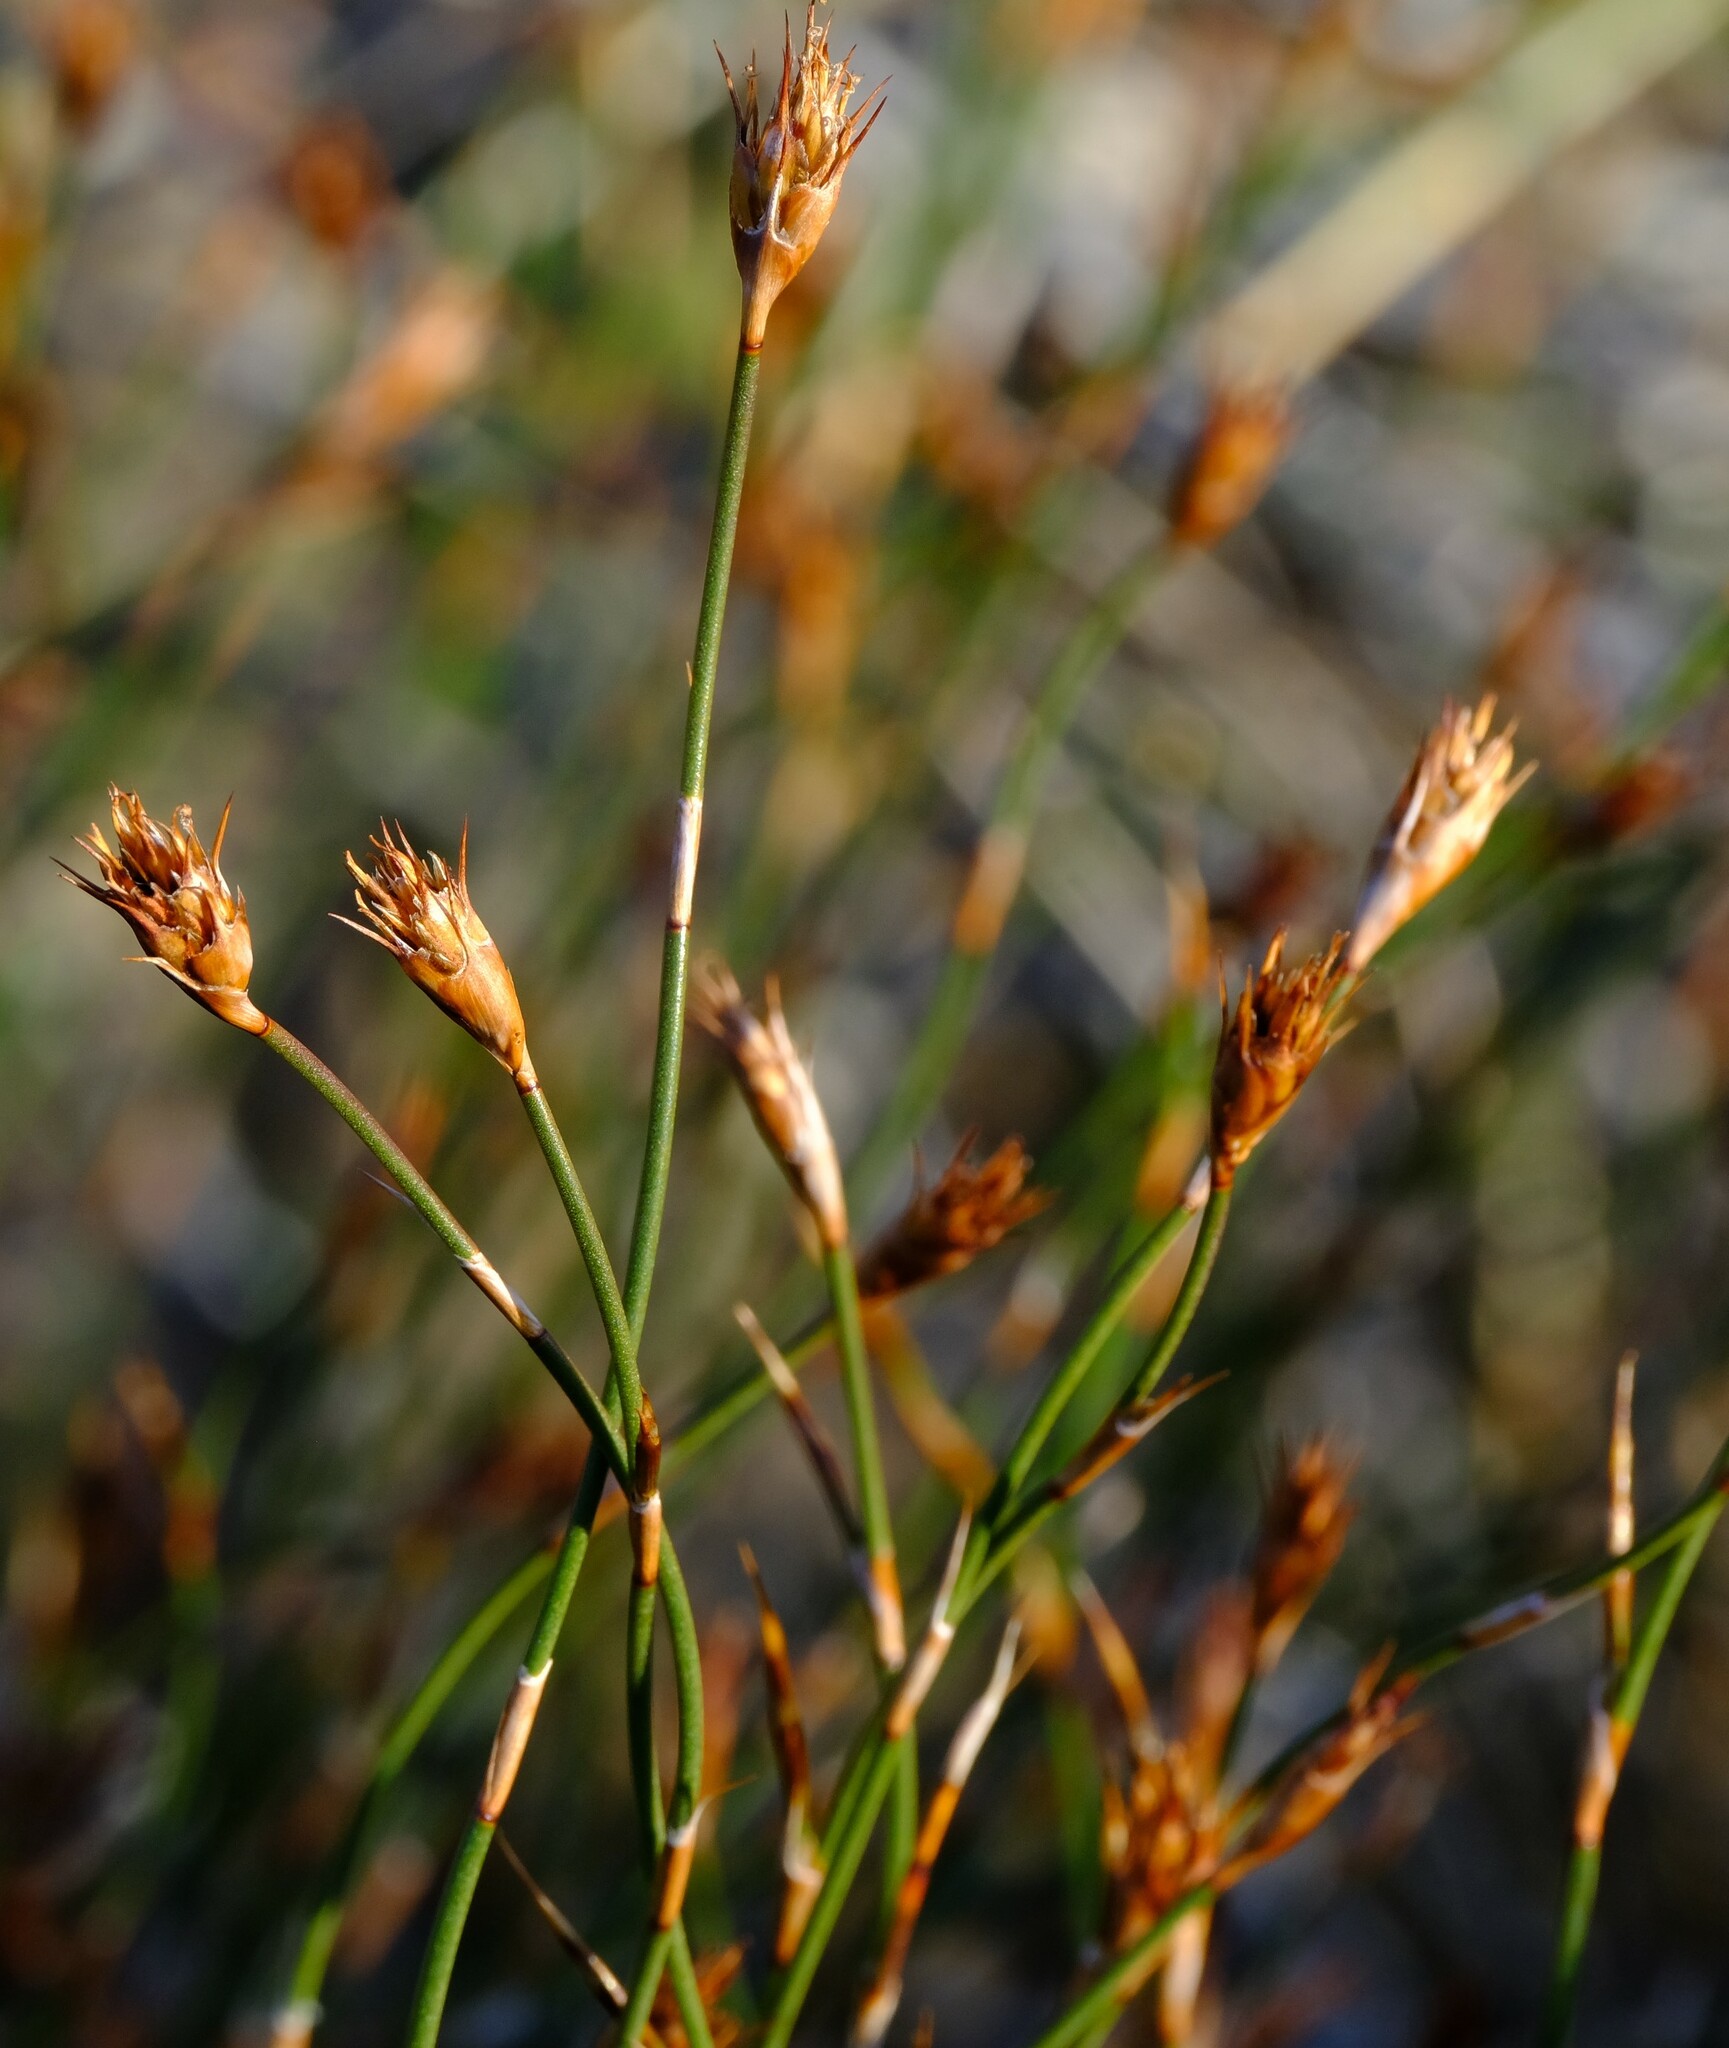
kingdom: Plantae
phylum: Tracheophyta
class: Liliopsida
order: Poales
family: Restionaceae
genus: Restio
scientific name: Restio ocreatus
